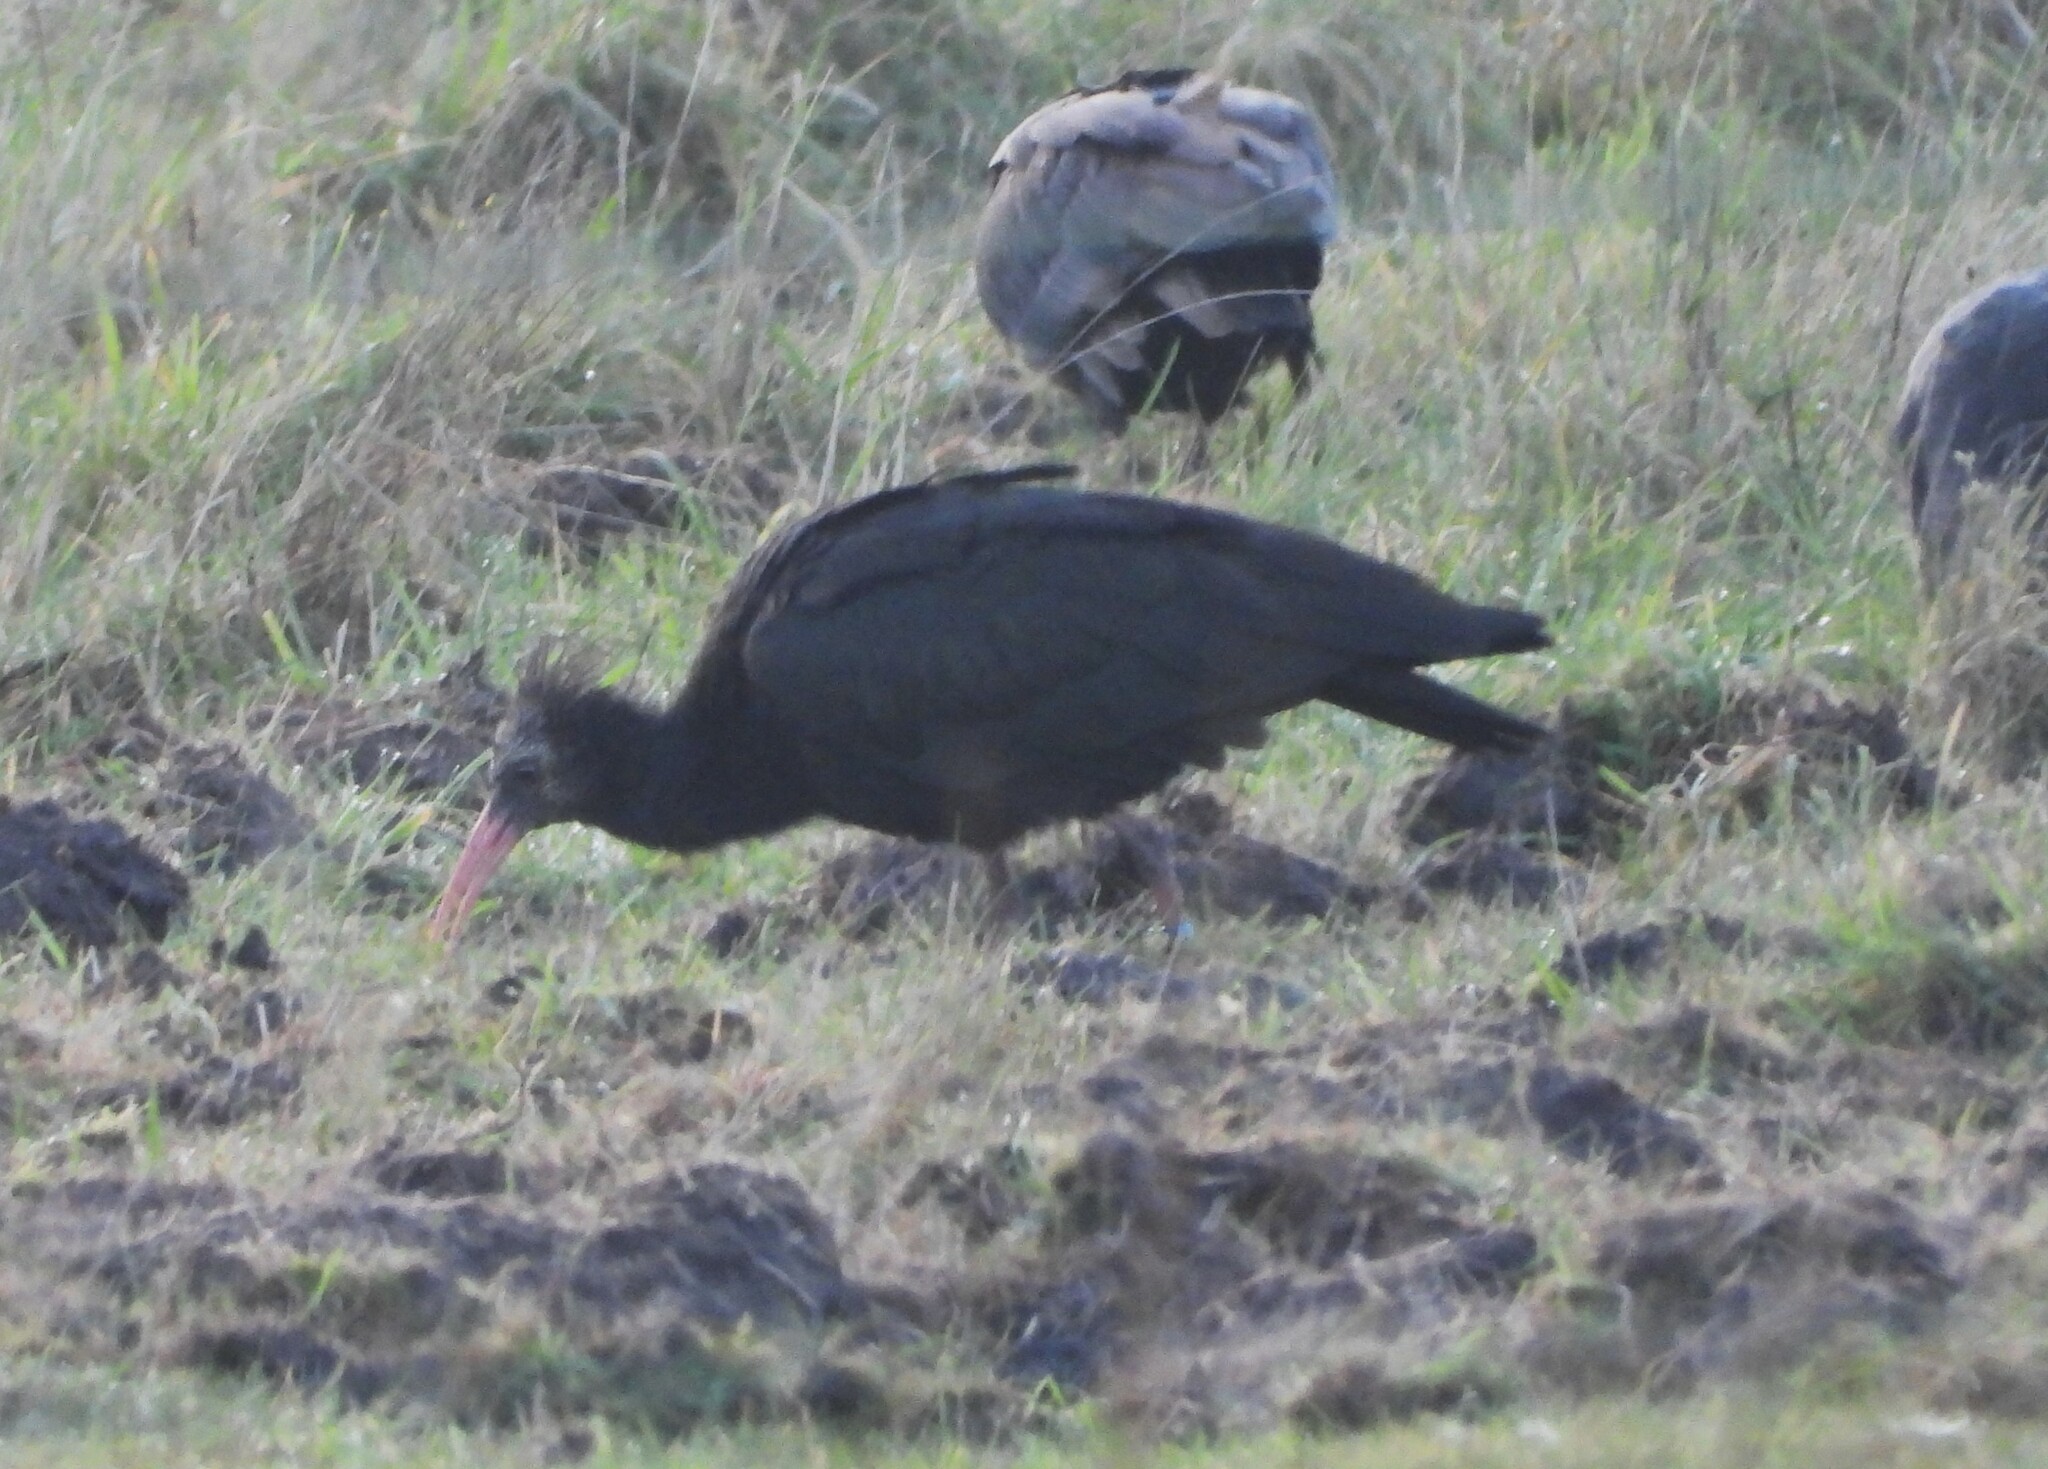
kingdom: Animalia
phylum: Chordata
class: Aves
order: Pelecaniformes
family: Threskiornithidae
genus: Geronticus
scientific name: Geronticus eremita
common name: Northern bald ibis
